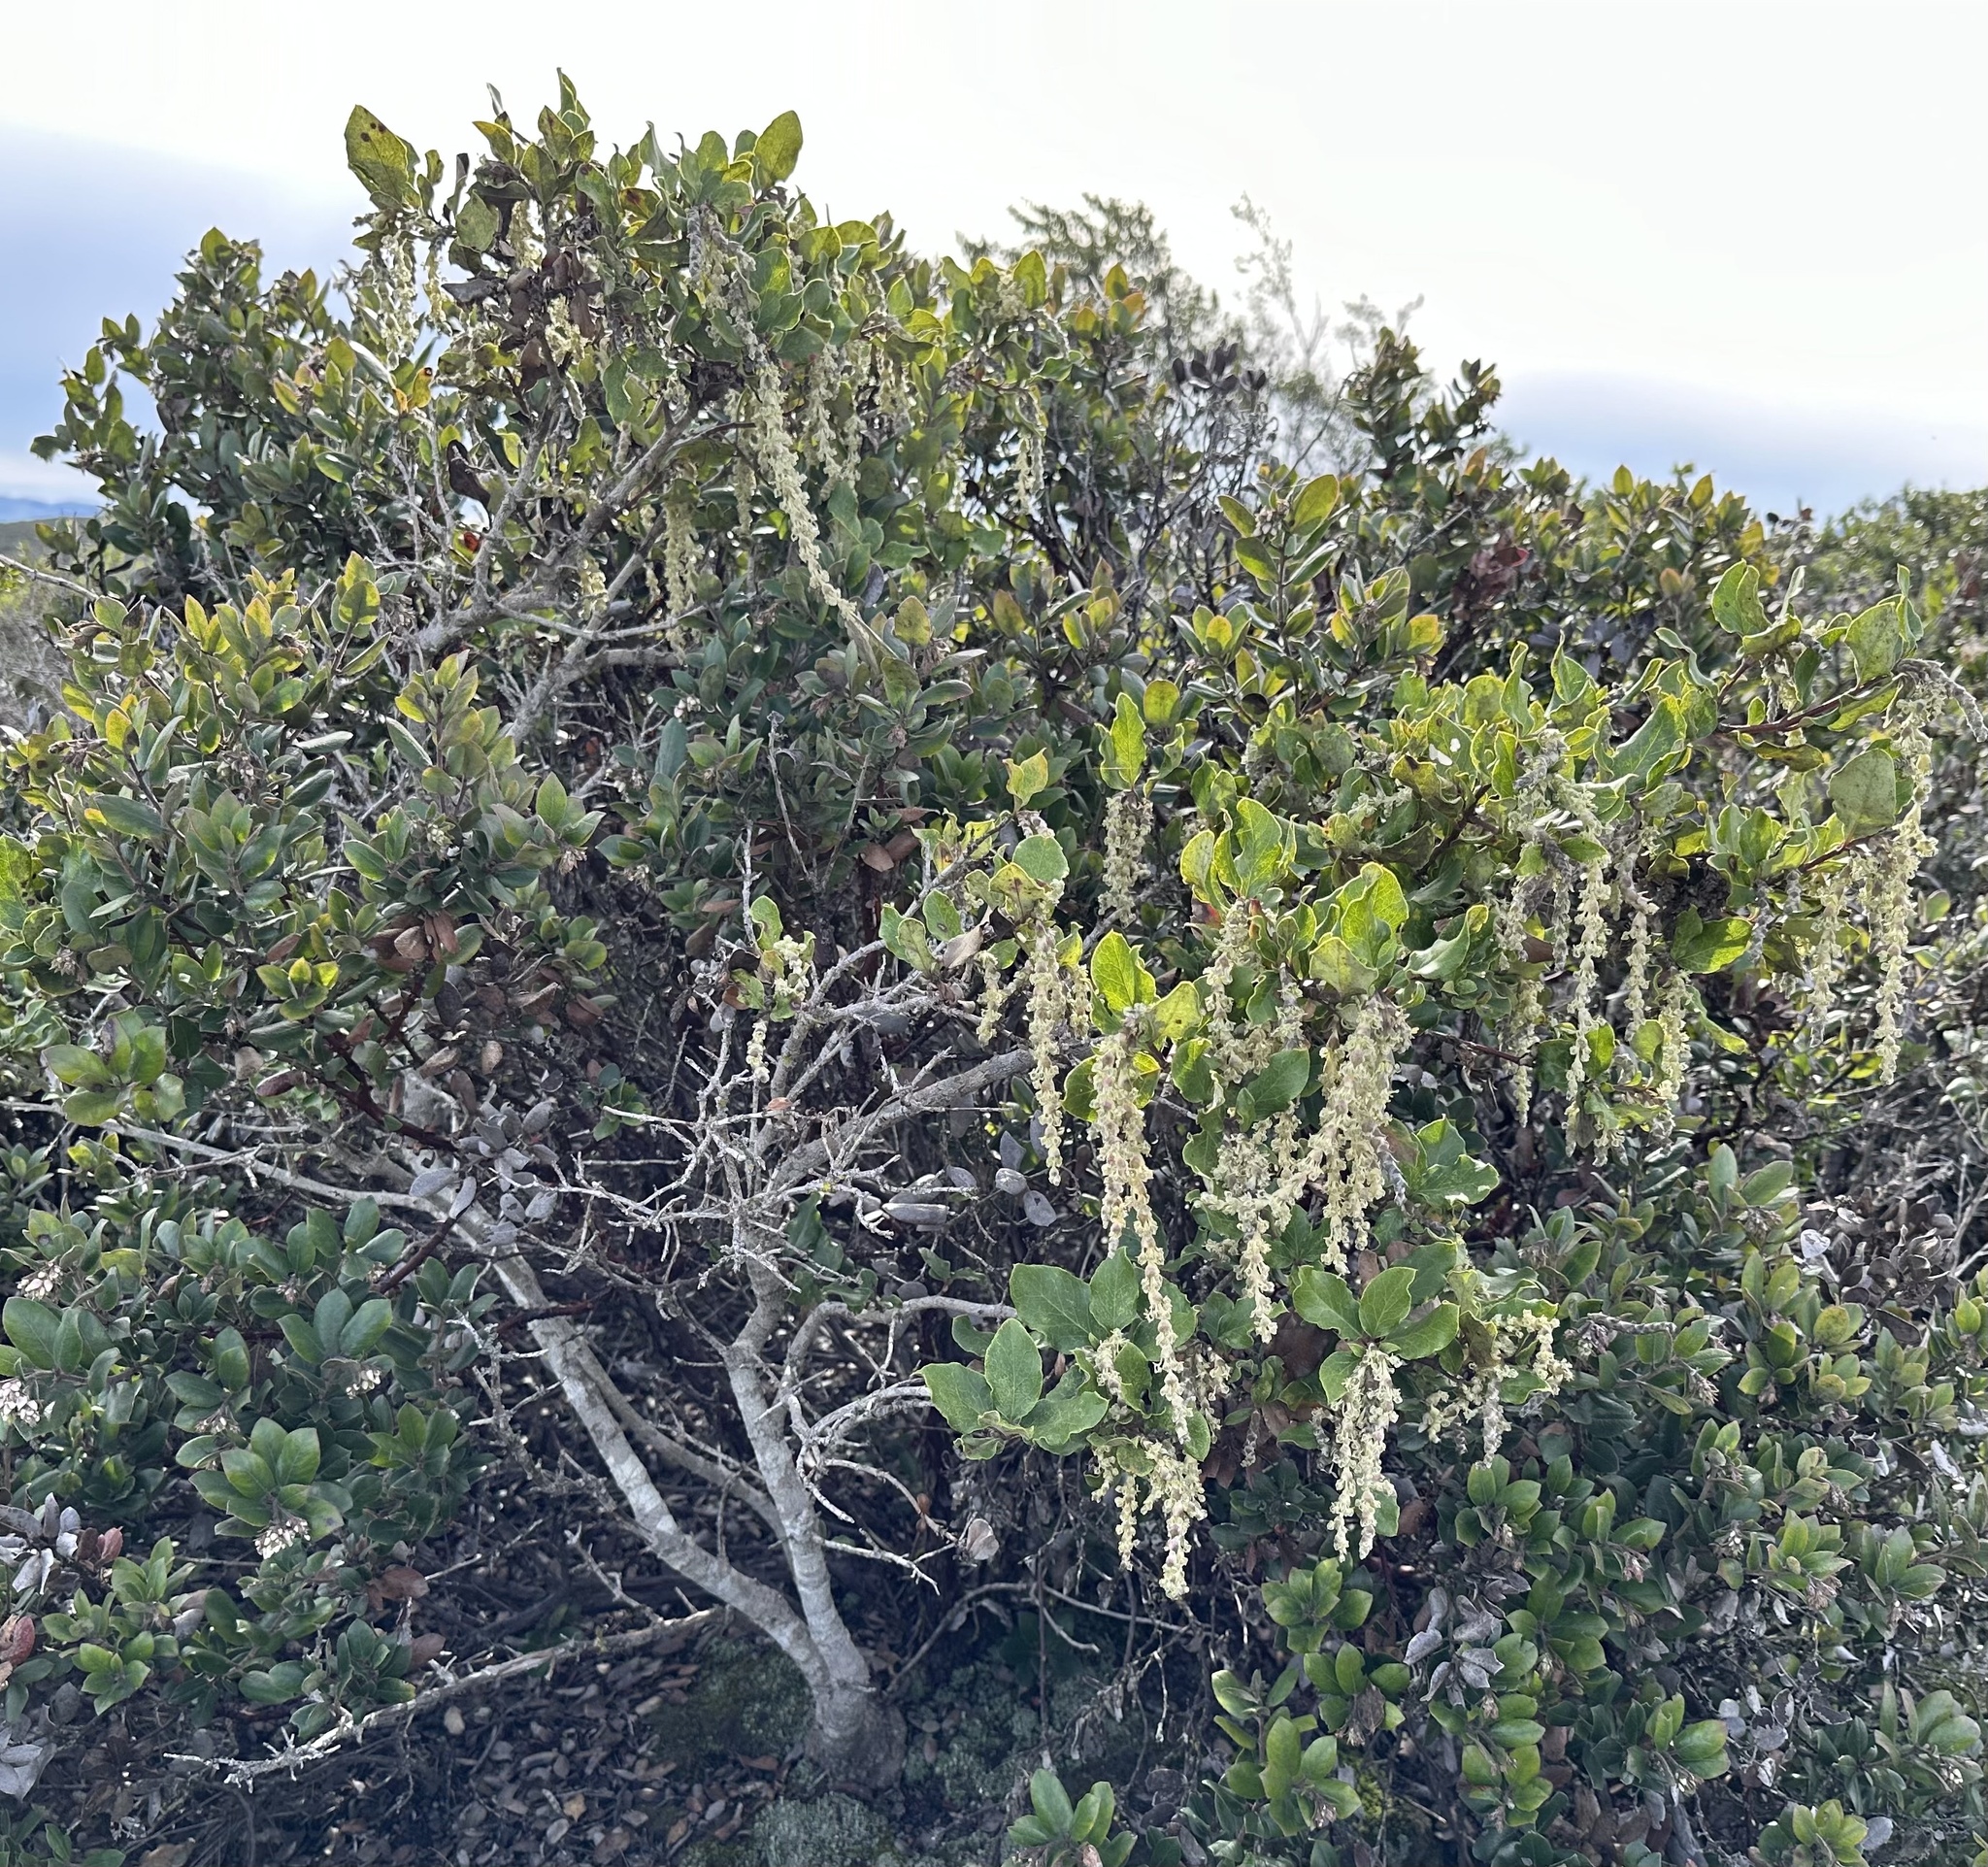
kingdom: Plantae
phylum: Tracheophyta
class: Magnoliopsida
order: Garryales
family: Garryaceae
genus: Garrya
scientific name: Garrya elliptica
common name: Silk-tassel
